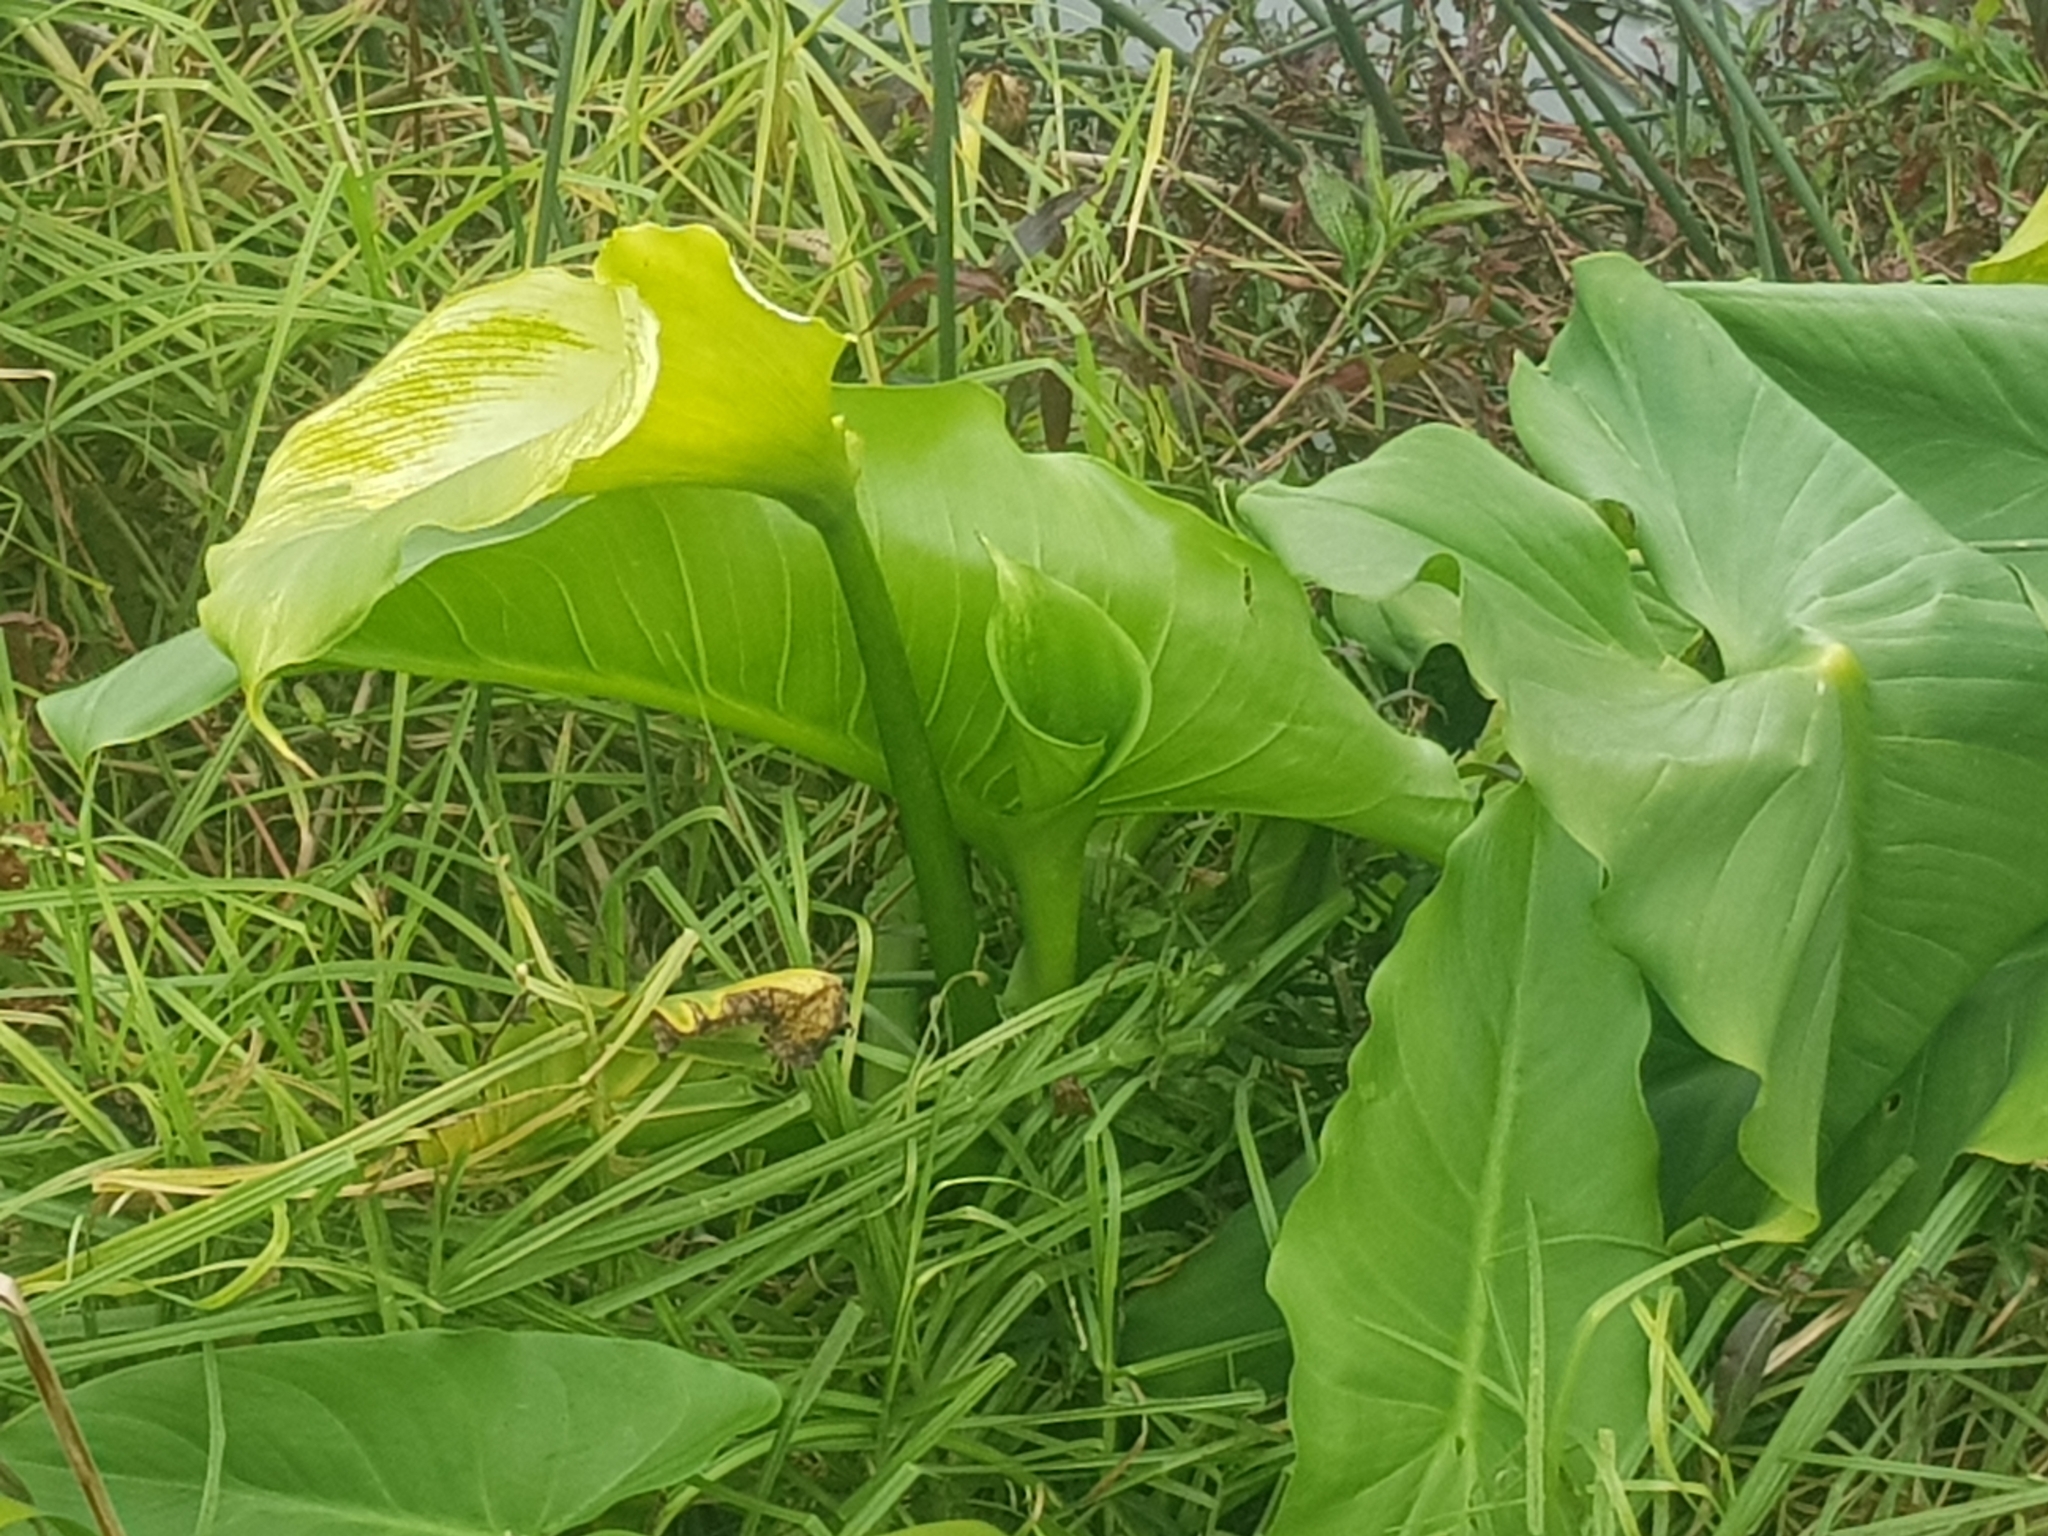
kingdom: Plantae
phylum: Tracheophyta
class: Liliopsida
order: Alismatales
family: Araceae
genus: Zantedeschia
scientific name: Zantedeschia aethiopica
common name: Altar-lily
